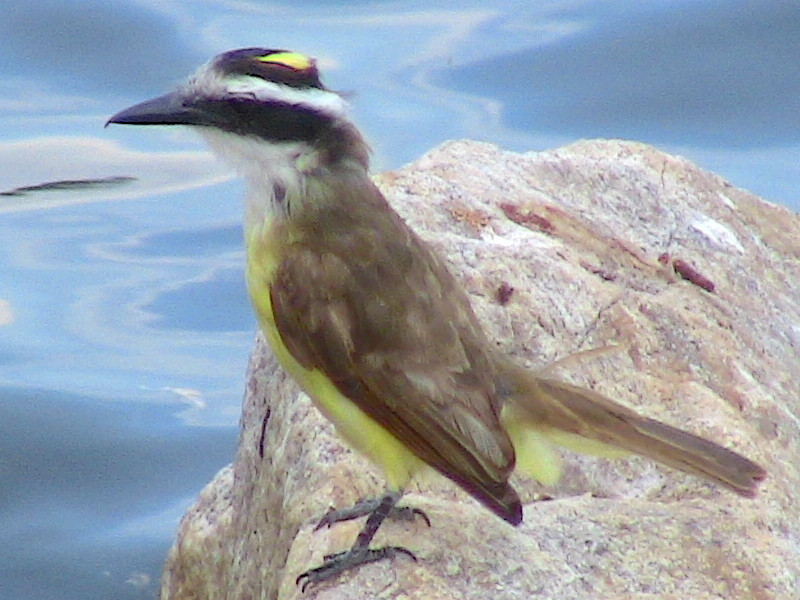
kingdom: Animalia
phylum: Chordata
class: Aves
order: Passeriformes
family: Tyrannidae
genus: Pitangus
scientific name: Pitangus sulphuratus
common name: Great kiskadee
